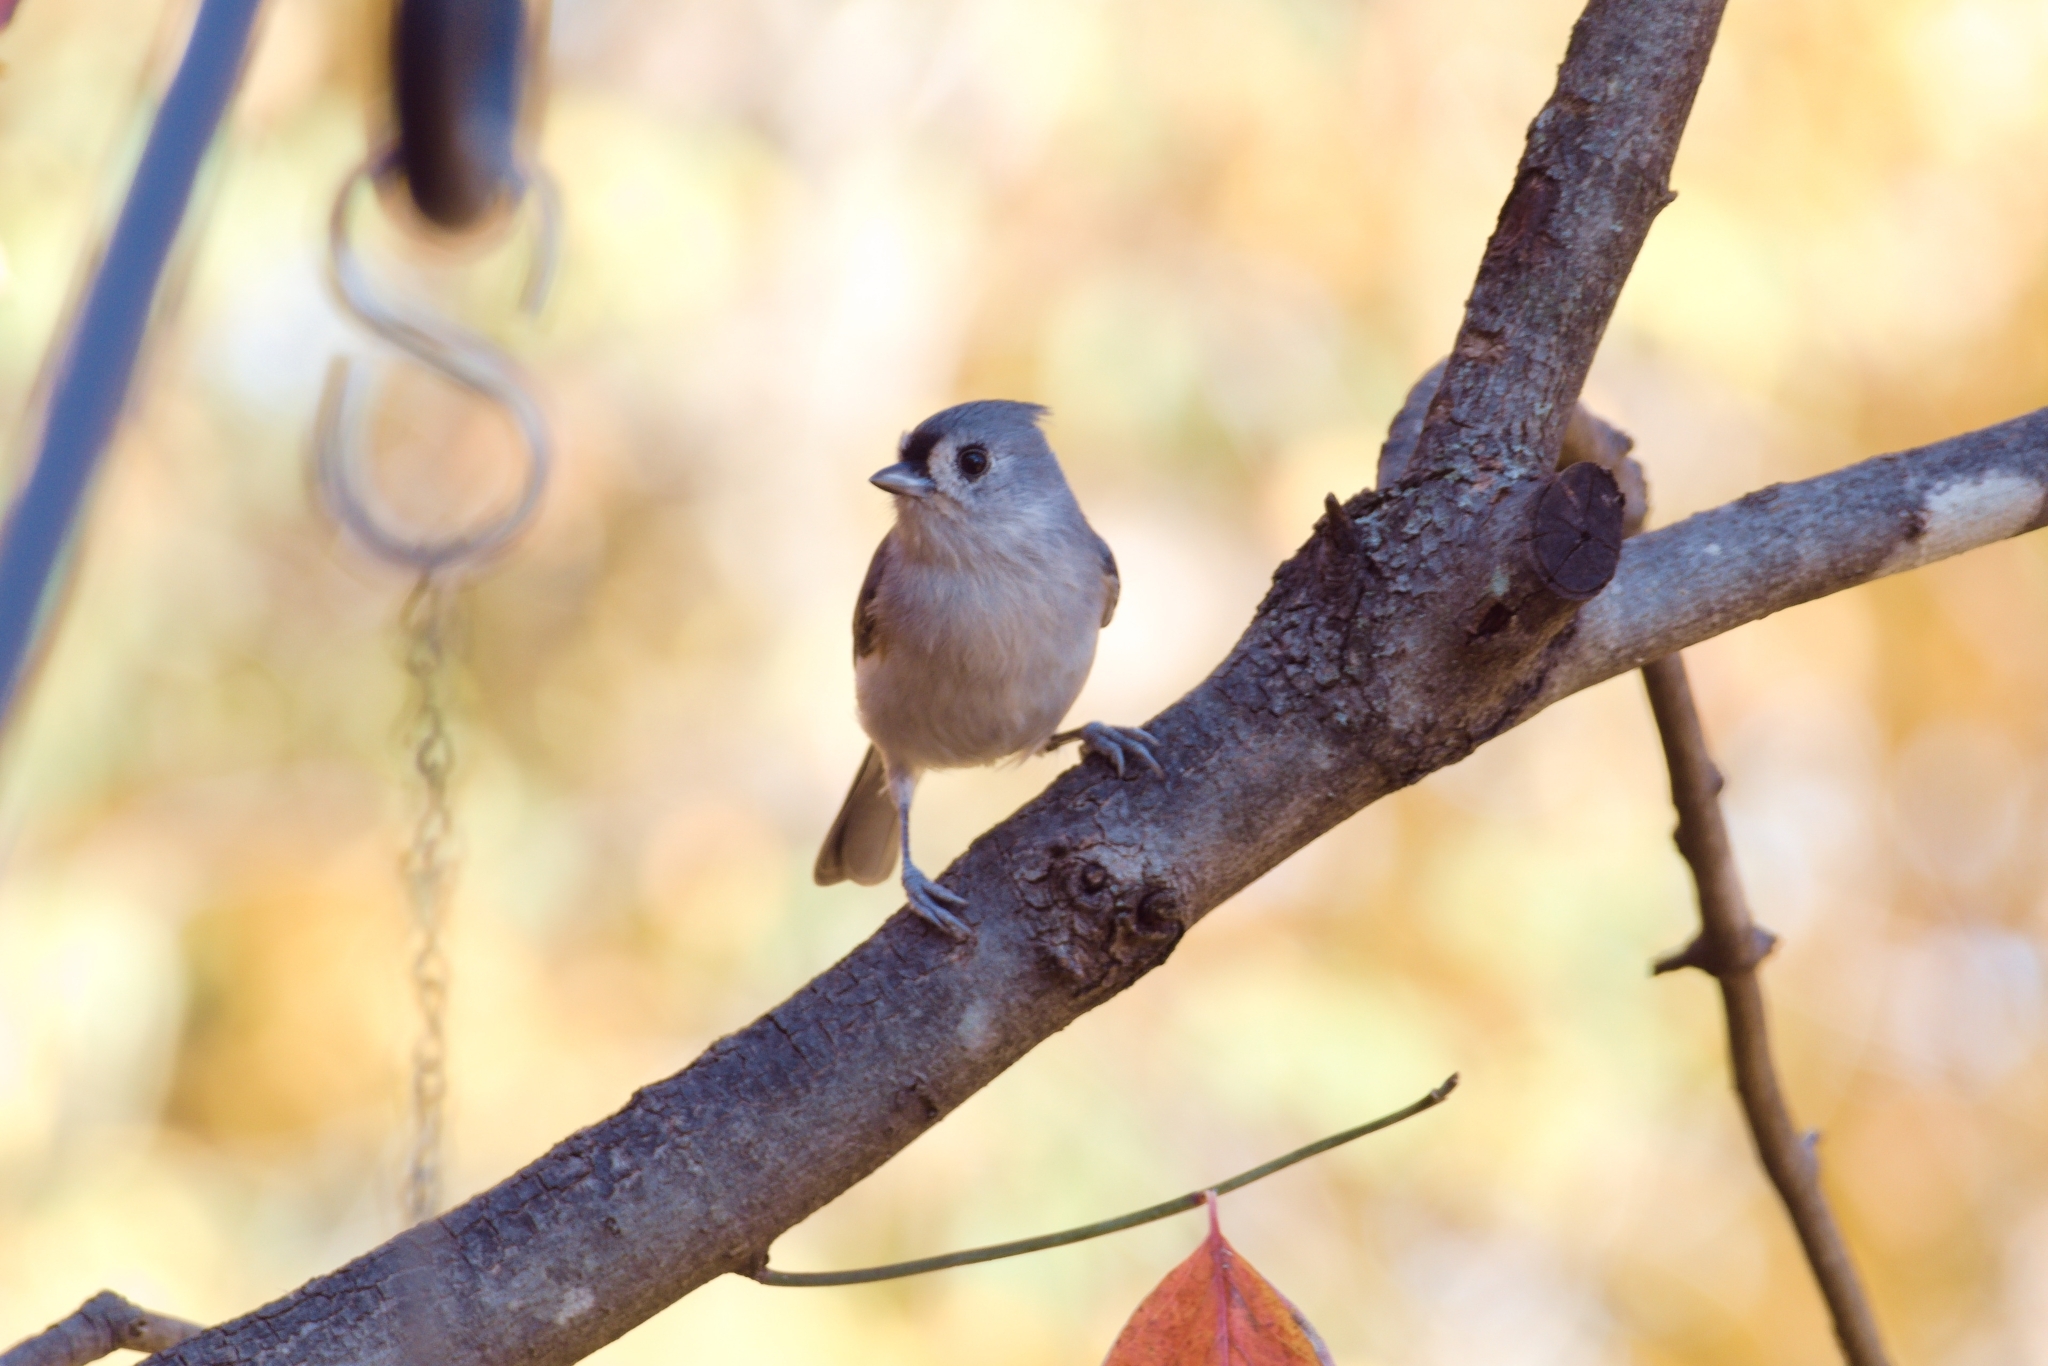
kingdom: Animalia
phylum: Chordata
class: Aves
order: Passeriformes
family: Paridae
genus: Baeolophus
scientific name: Baeolophus bicolor
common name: Tufted titmouse
